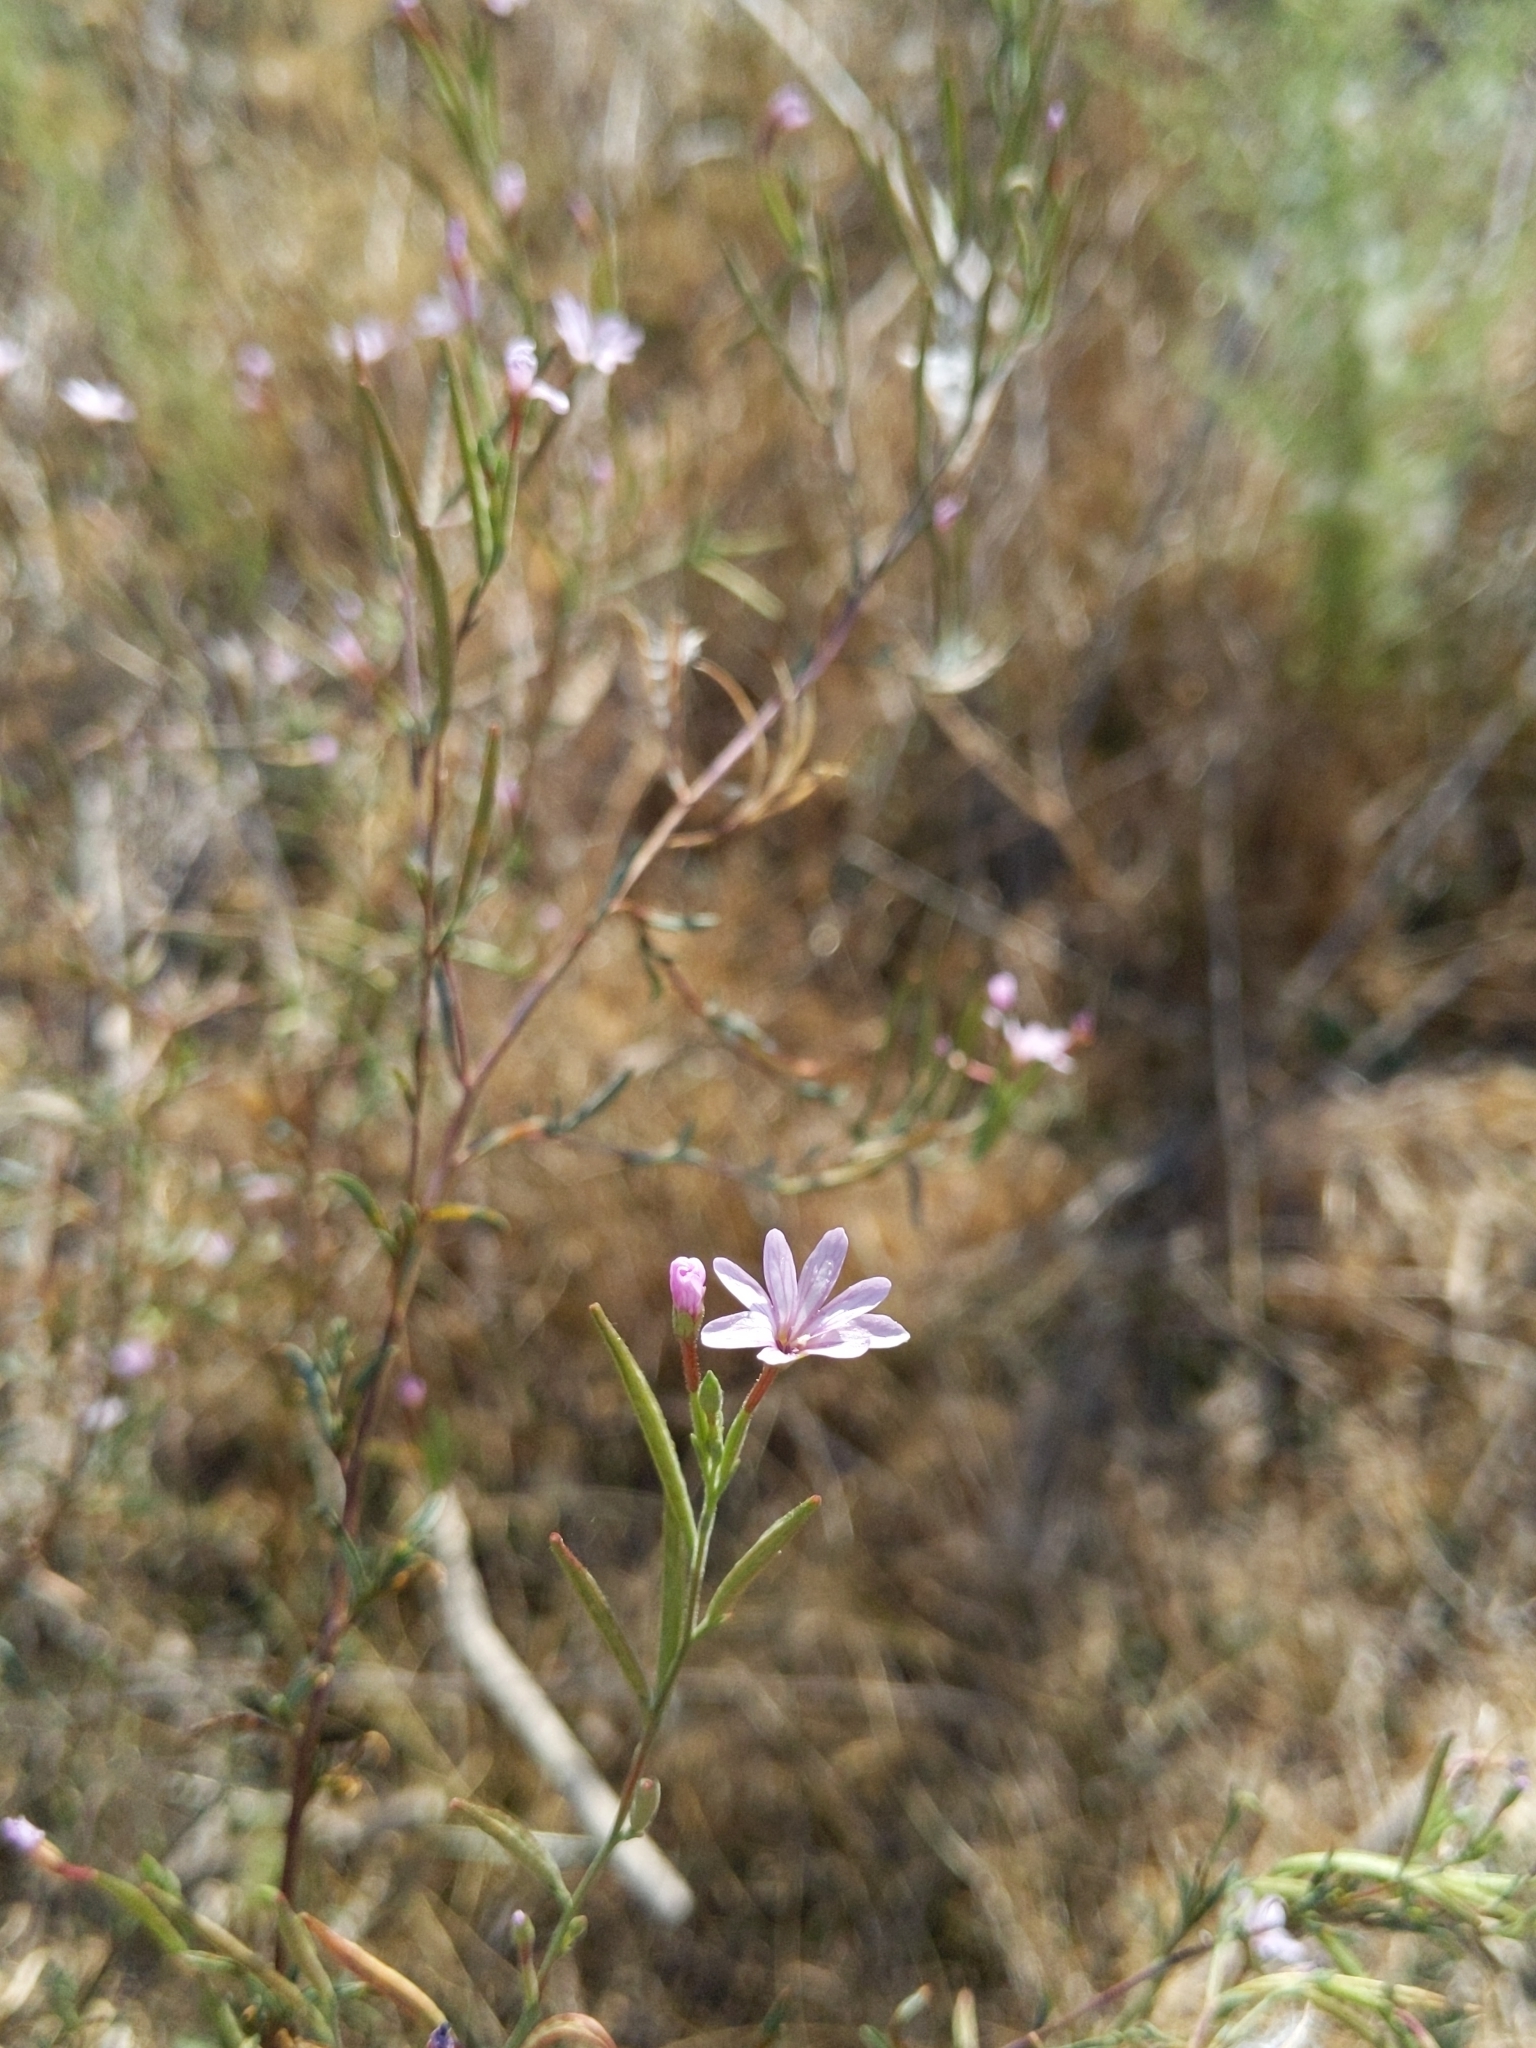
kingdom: Plantae
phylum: Tracheophyta
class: Magnoliopsida
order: Myrtales
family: Onagraceae
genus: Epilobium
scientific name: Epilobium brachycarpum
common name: Annual willowherb
